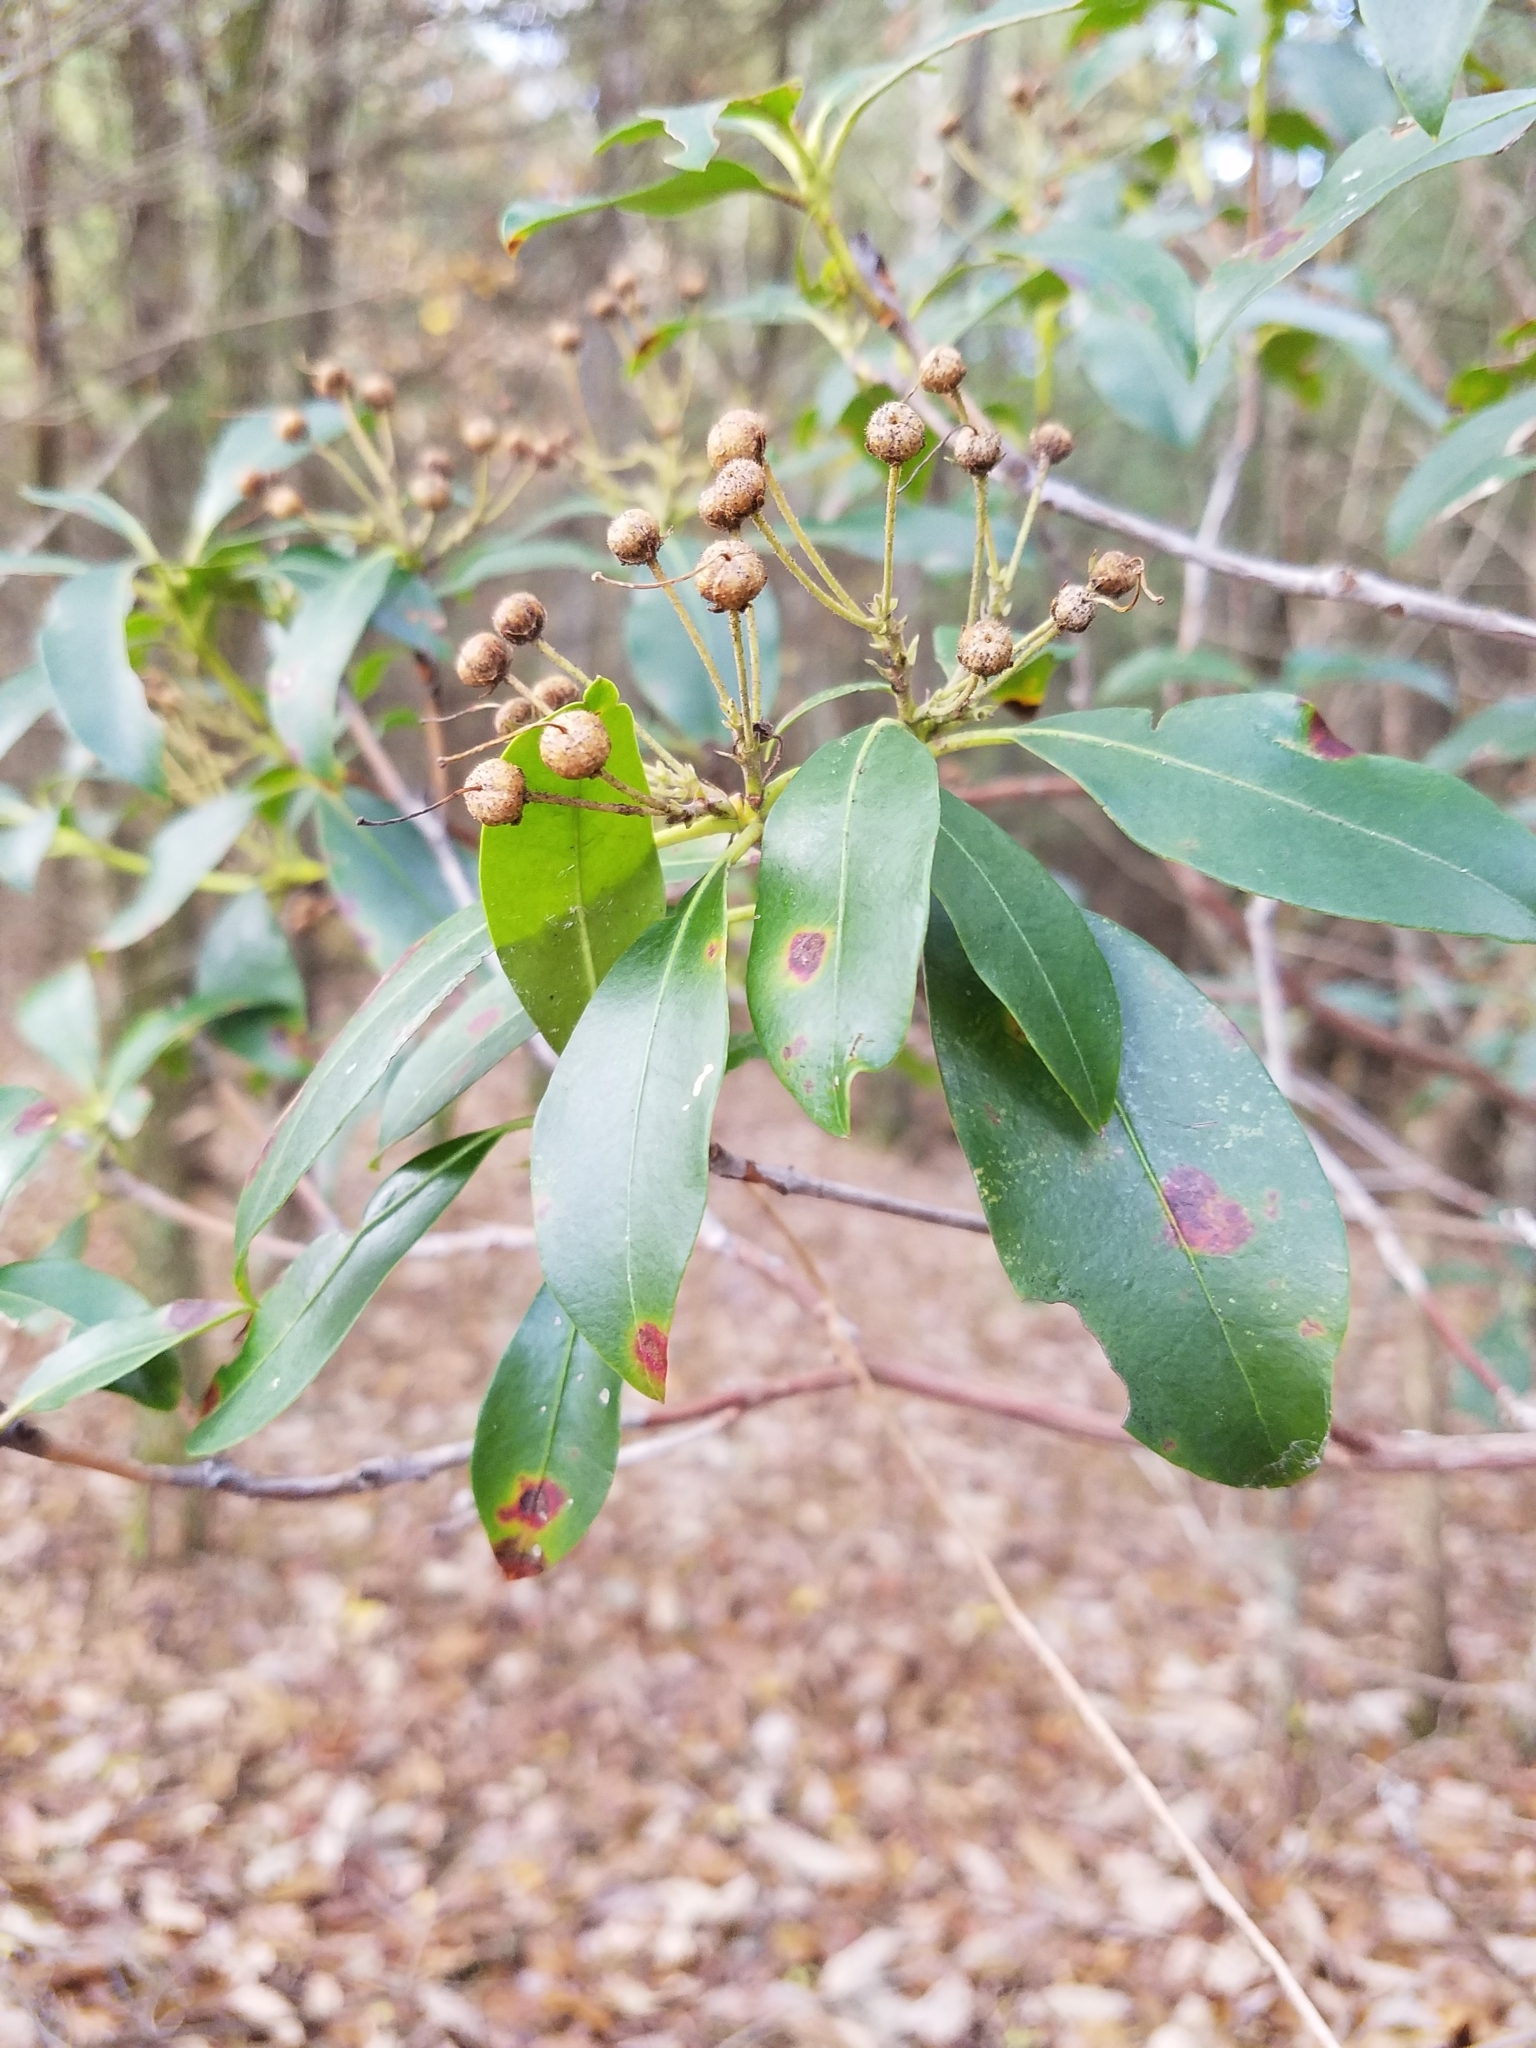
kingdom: Plantae
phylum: Tracheophyta
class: Magnoliopsida
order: Ericales
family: Ericaceae
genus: Kalmia
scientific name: Kalmia latifolia
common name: Mountain-laurel
